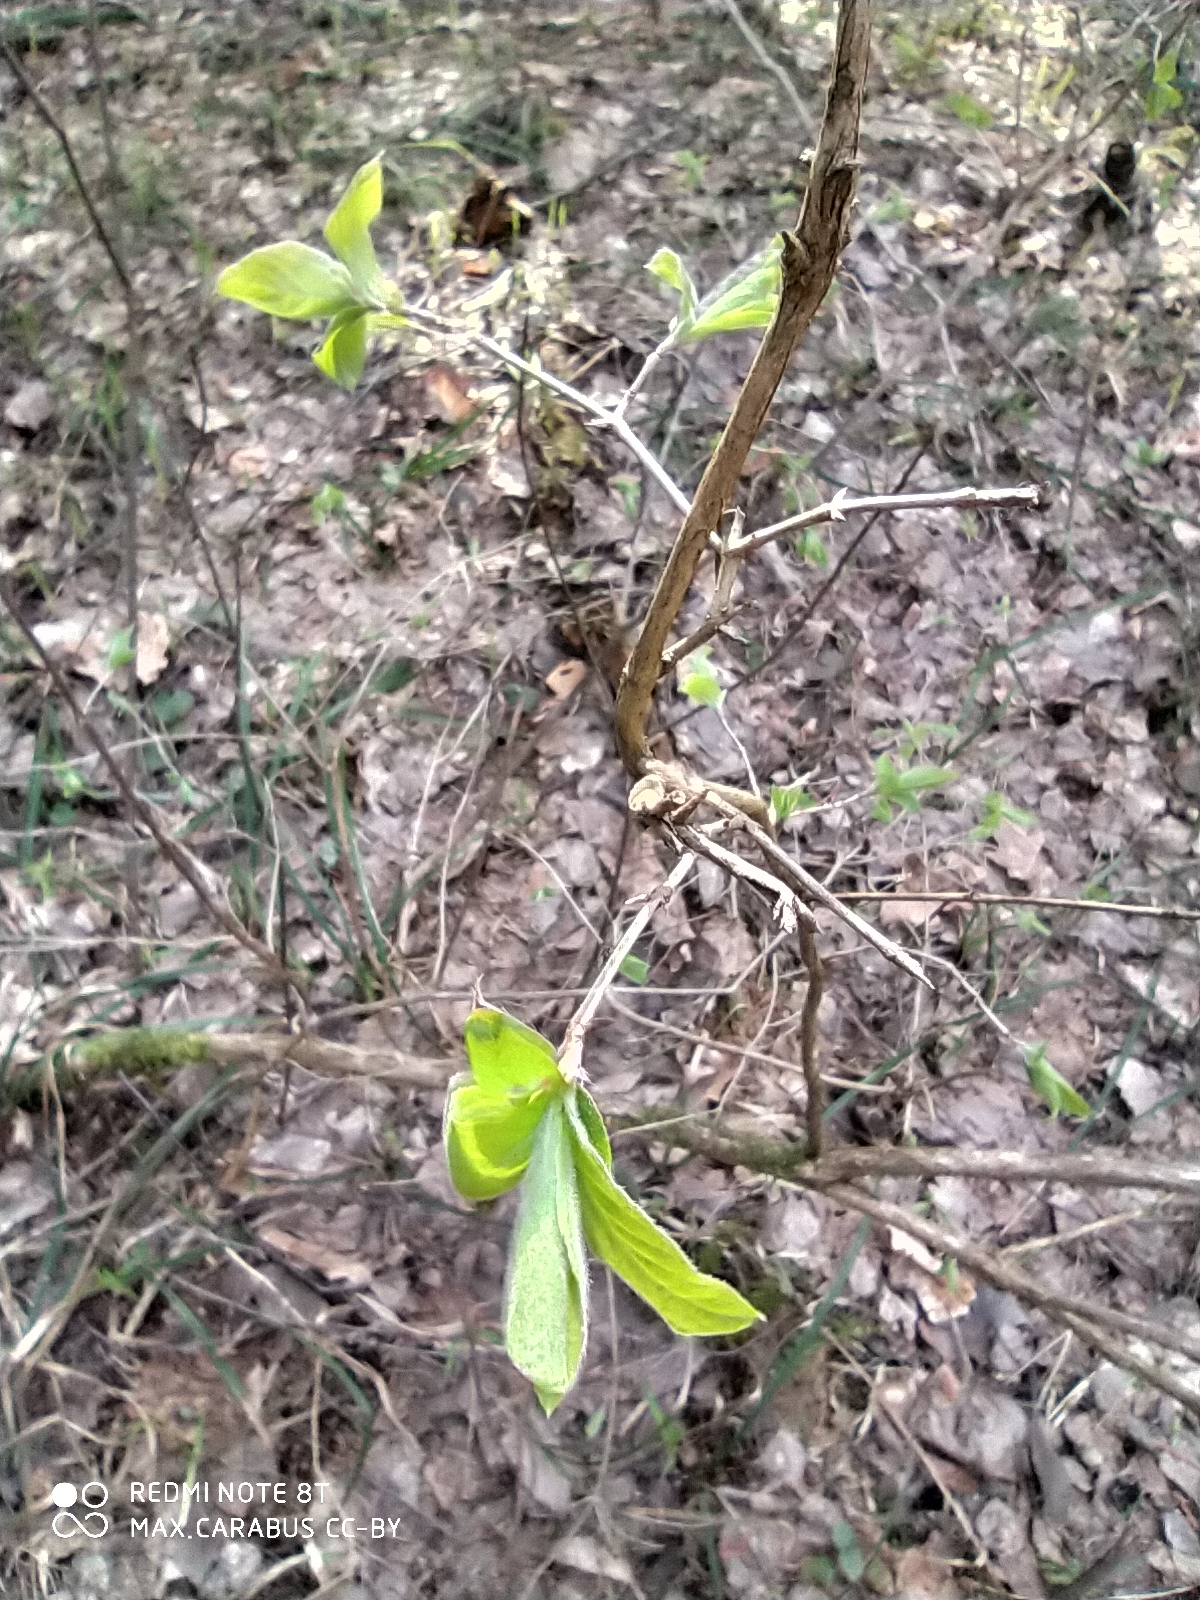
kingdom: Plantae
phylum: Tracheophyta
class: Magnoliopsida
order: Dipsacales
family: Caprifoliaceae
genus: Lonicera
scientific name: Lonicera xylosteum
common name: Fly honeysuckle
